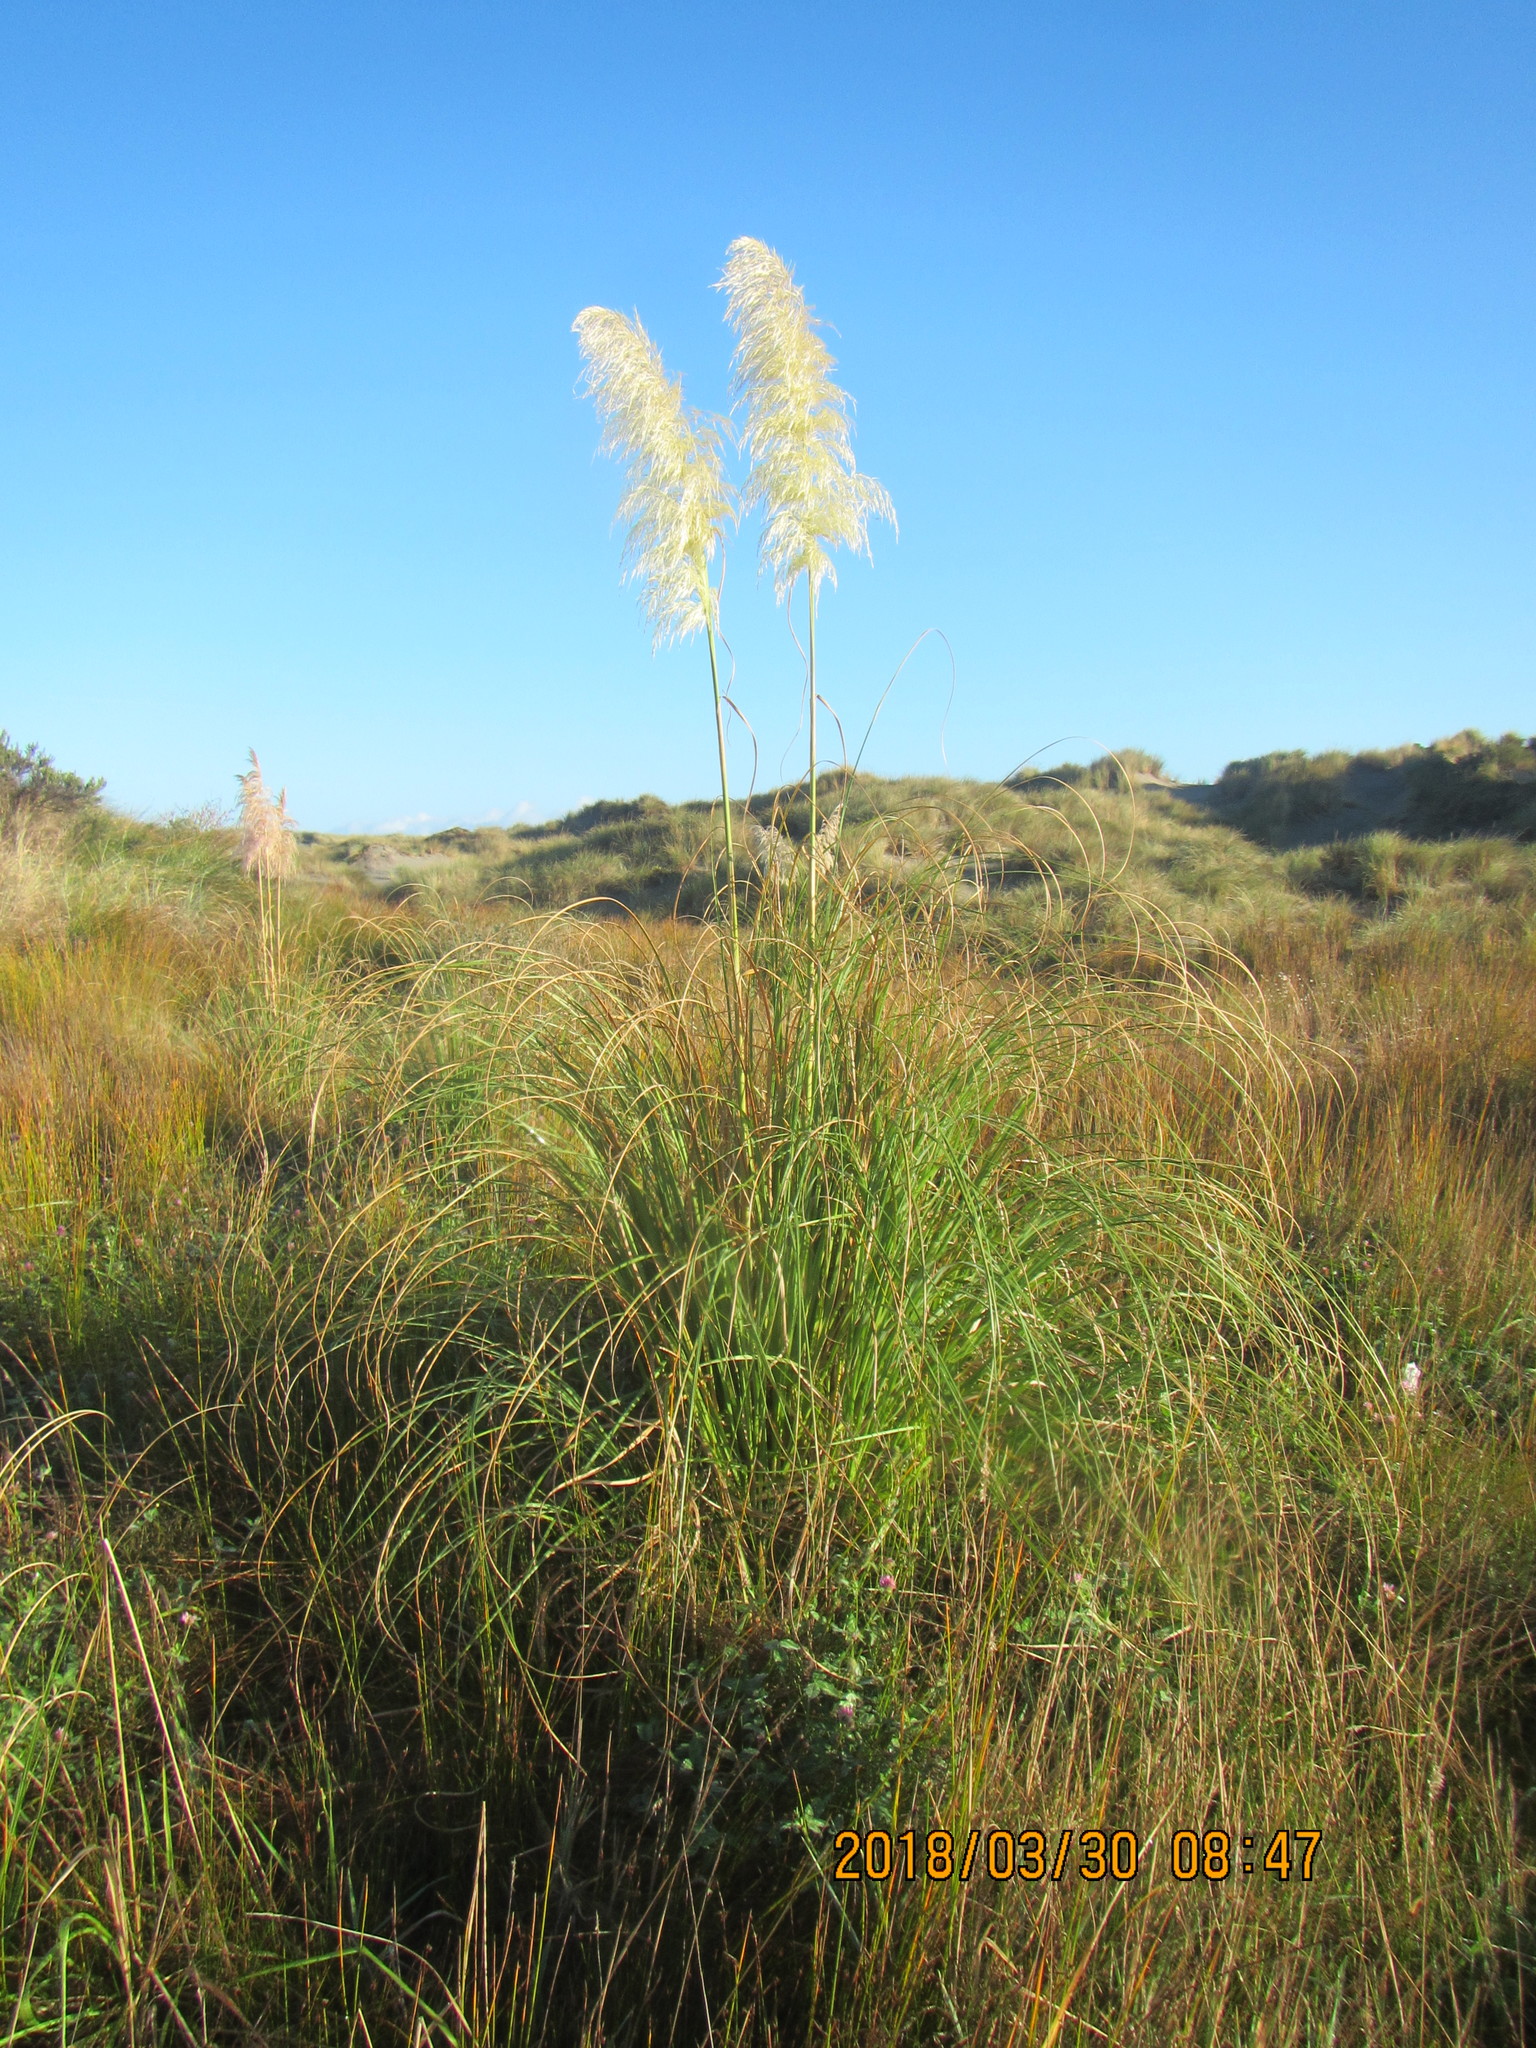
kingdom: Plantae
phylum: Tracheophyta
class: Liliopsida
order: Poales
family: Poaceae
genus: Cortaderia
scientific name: Cortaderia selloana
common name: Uruguayan pampas grass
